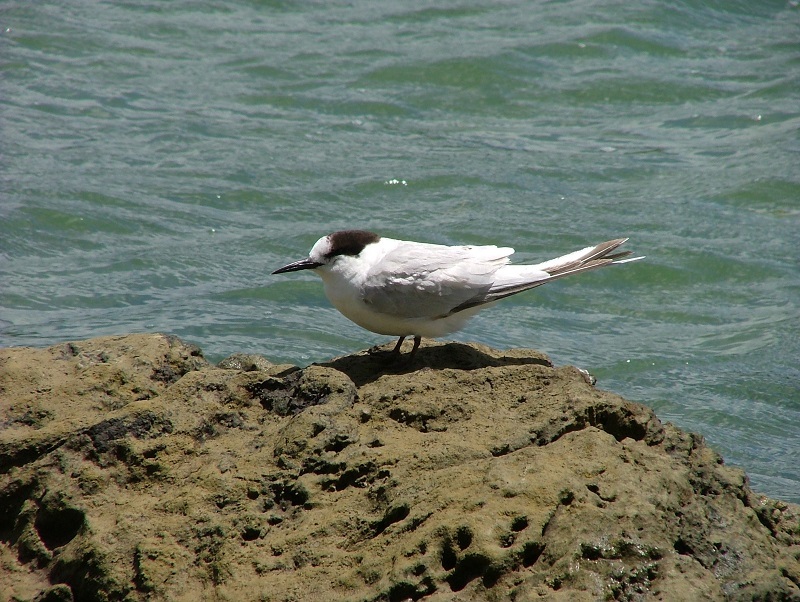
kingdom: Animalia
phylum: Chordata
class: Aves
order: Charadriiformes
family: Laridae
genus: Sterna
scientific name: Sterna striata
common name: White-fronted tern
